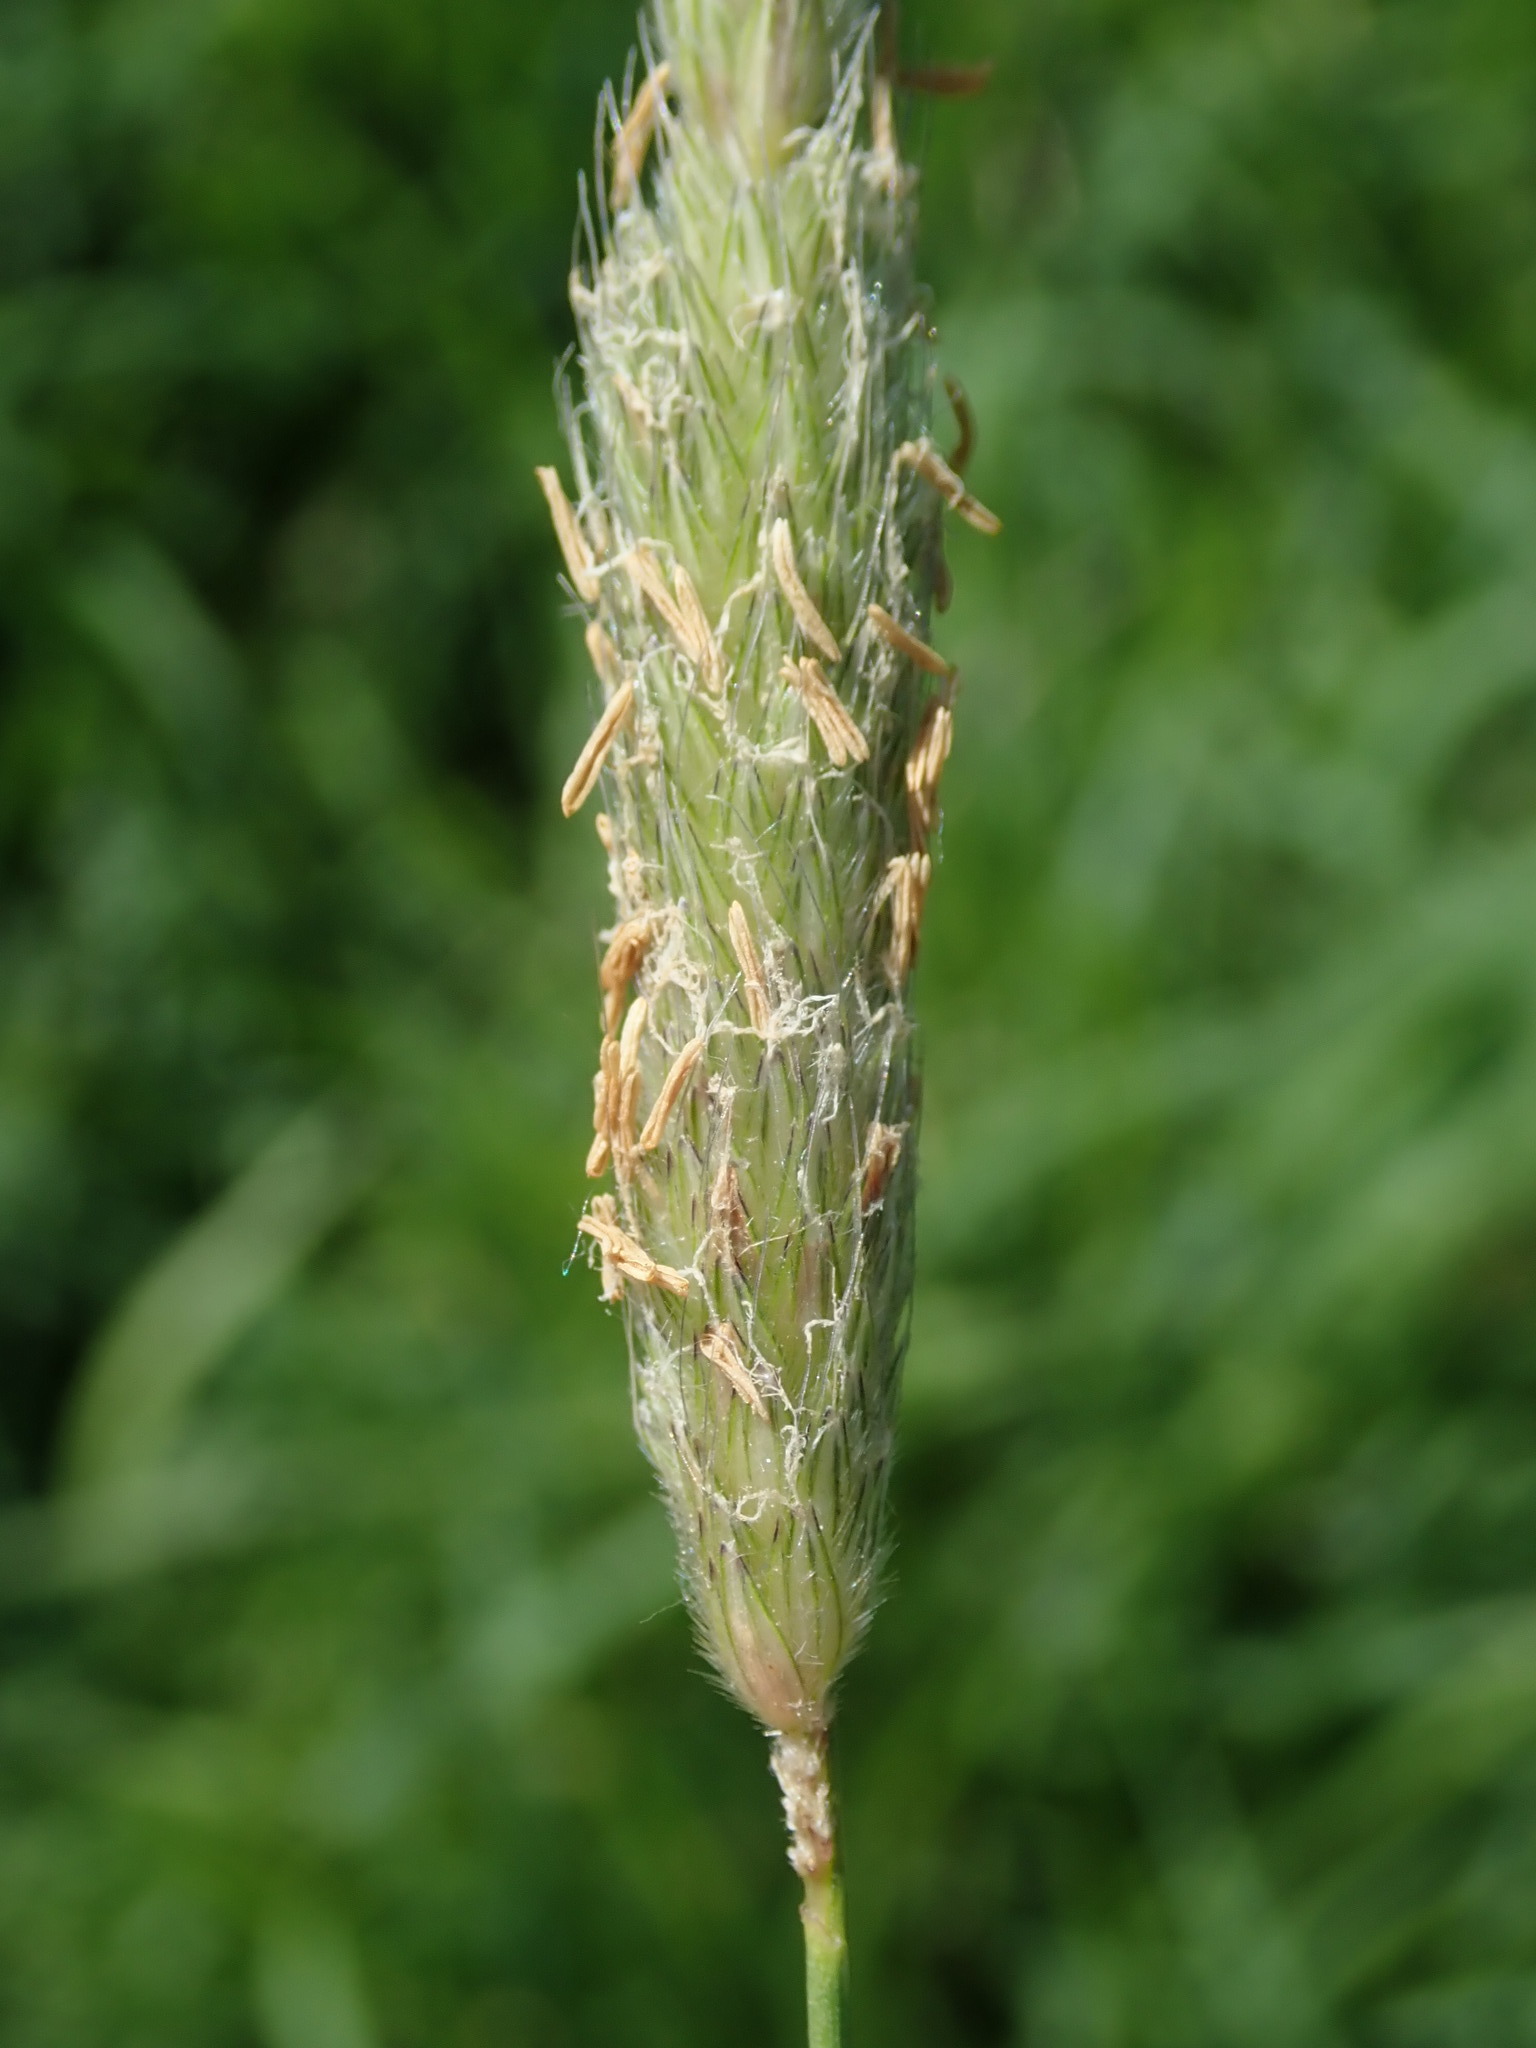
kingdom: Plantae
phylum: Tracheophyta
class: Liliopsida
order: Poales
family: Poaceae
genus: Alopecurus
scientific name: Alopecurus pratensis
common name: Meadow foxtail
